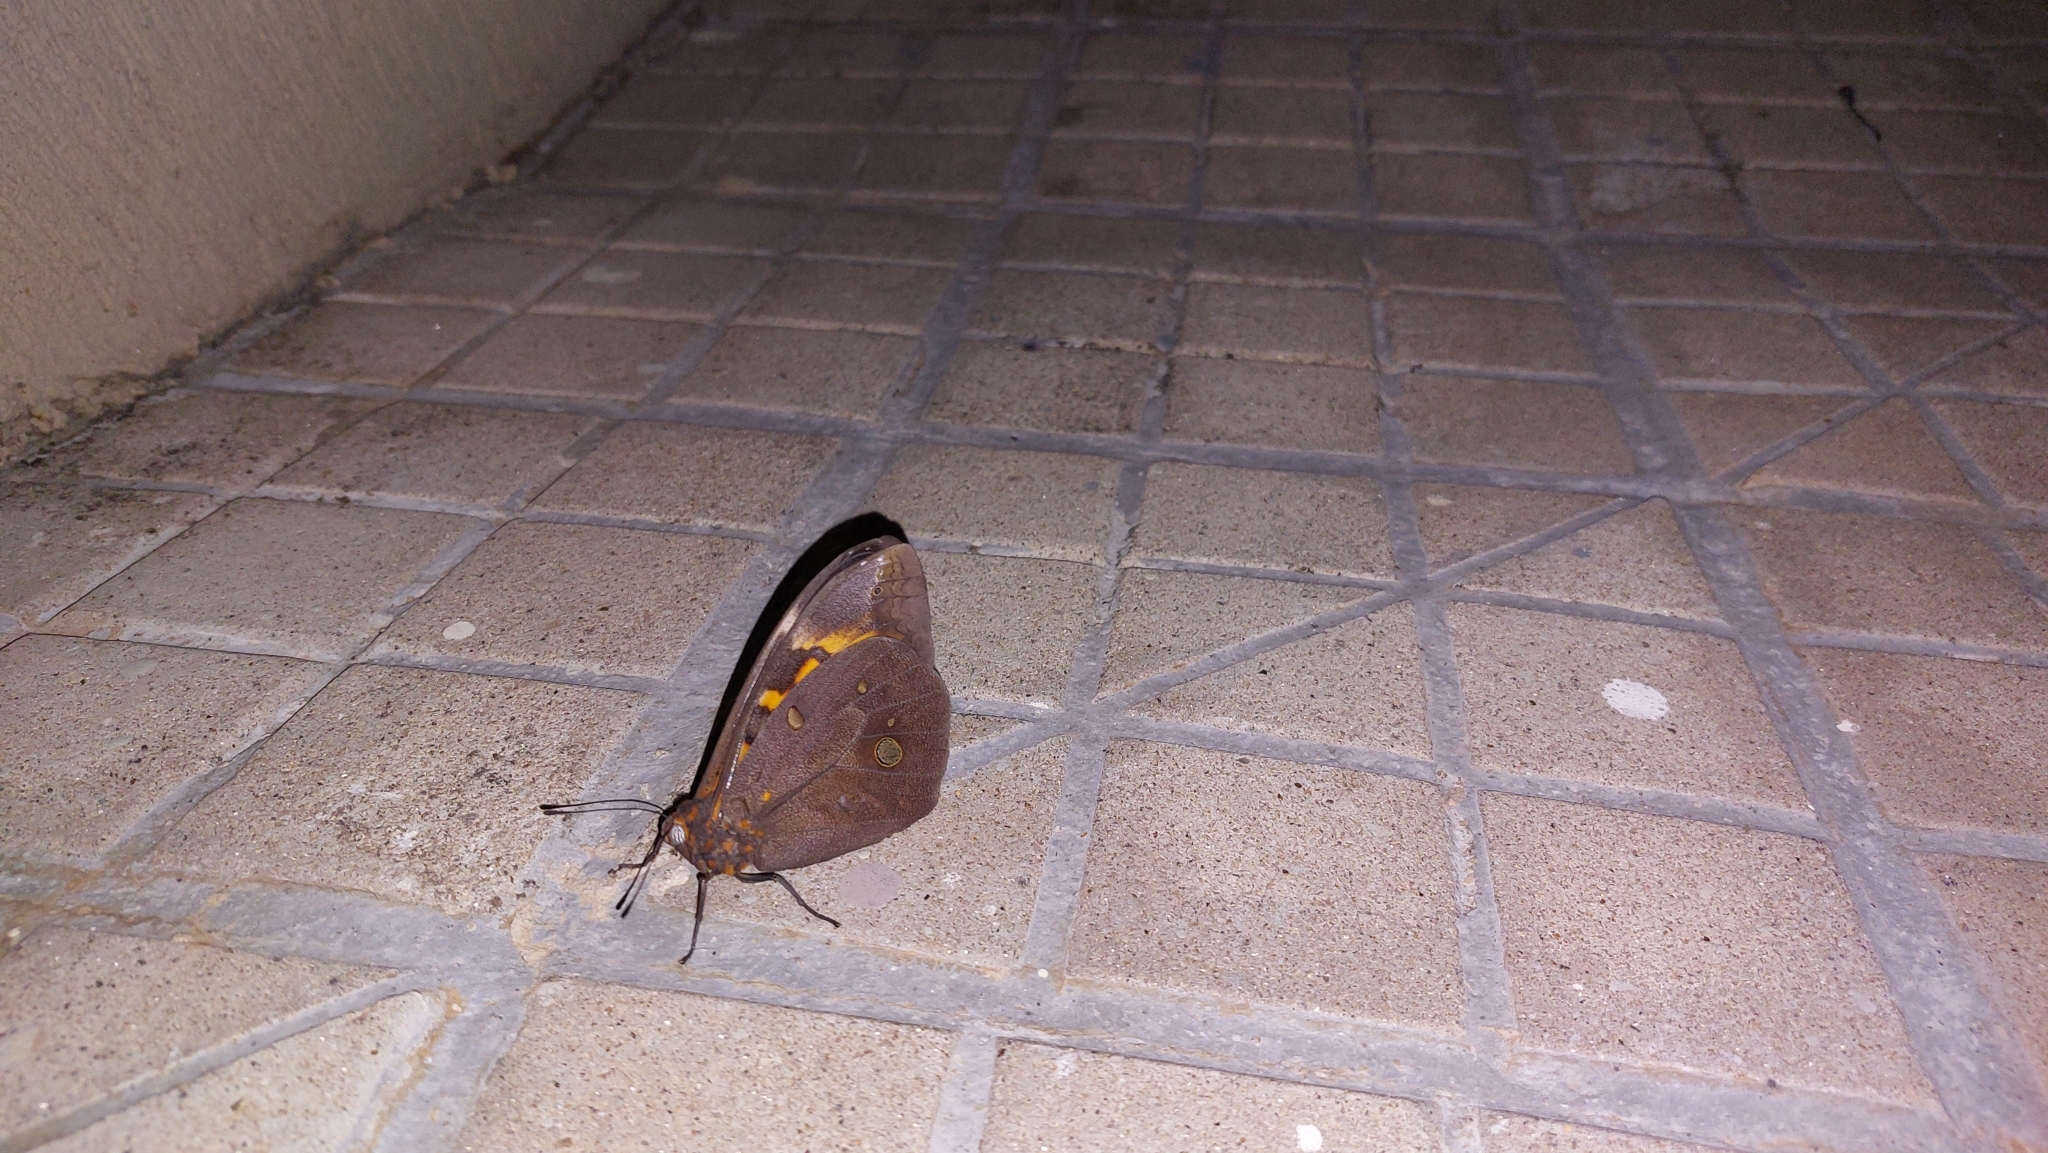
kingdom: Animalia
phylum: Arthropoda
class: Insecta
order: Lepidoptera
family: Nymphalidae
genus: Brassolis
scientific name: Brassolis sophorae
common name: Coconut caterpillar
